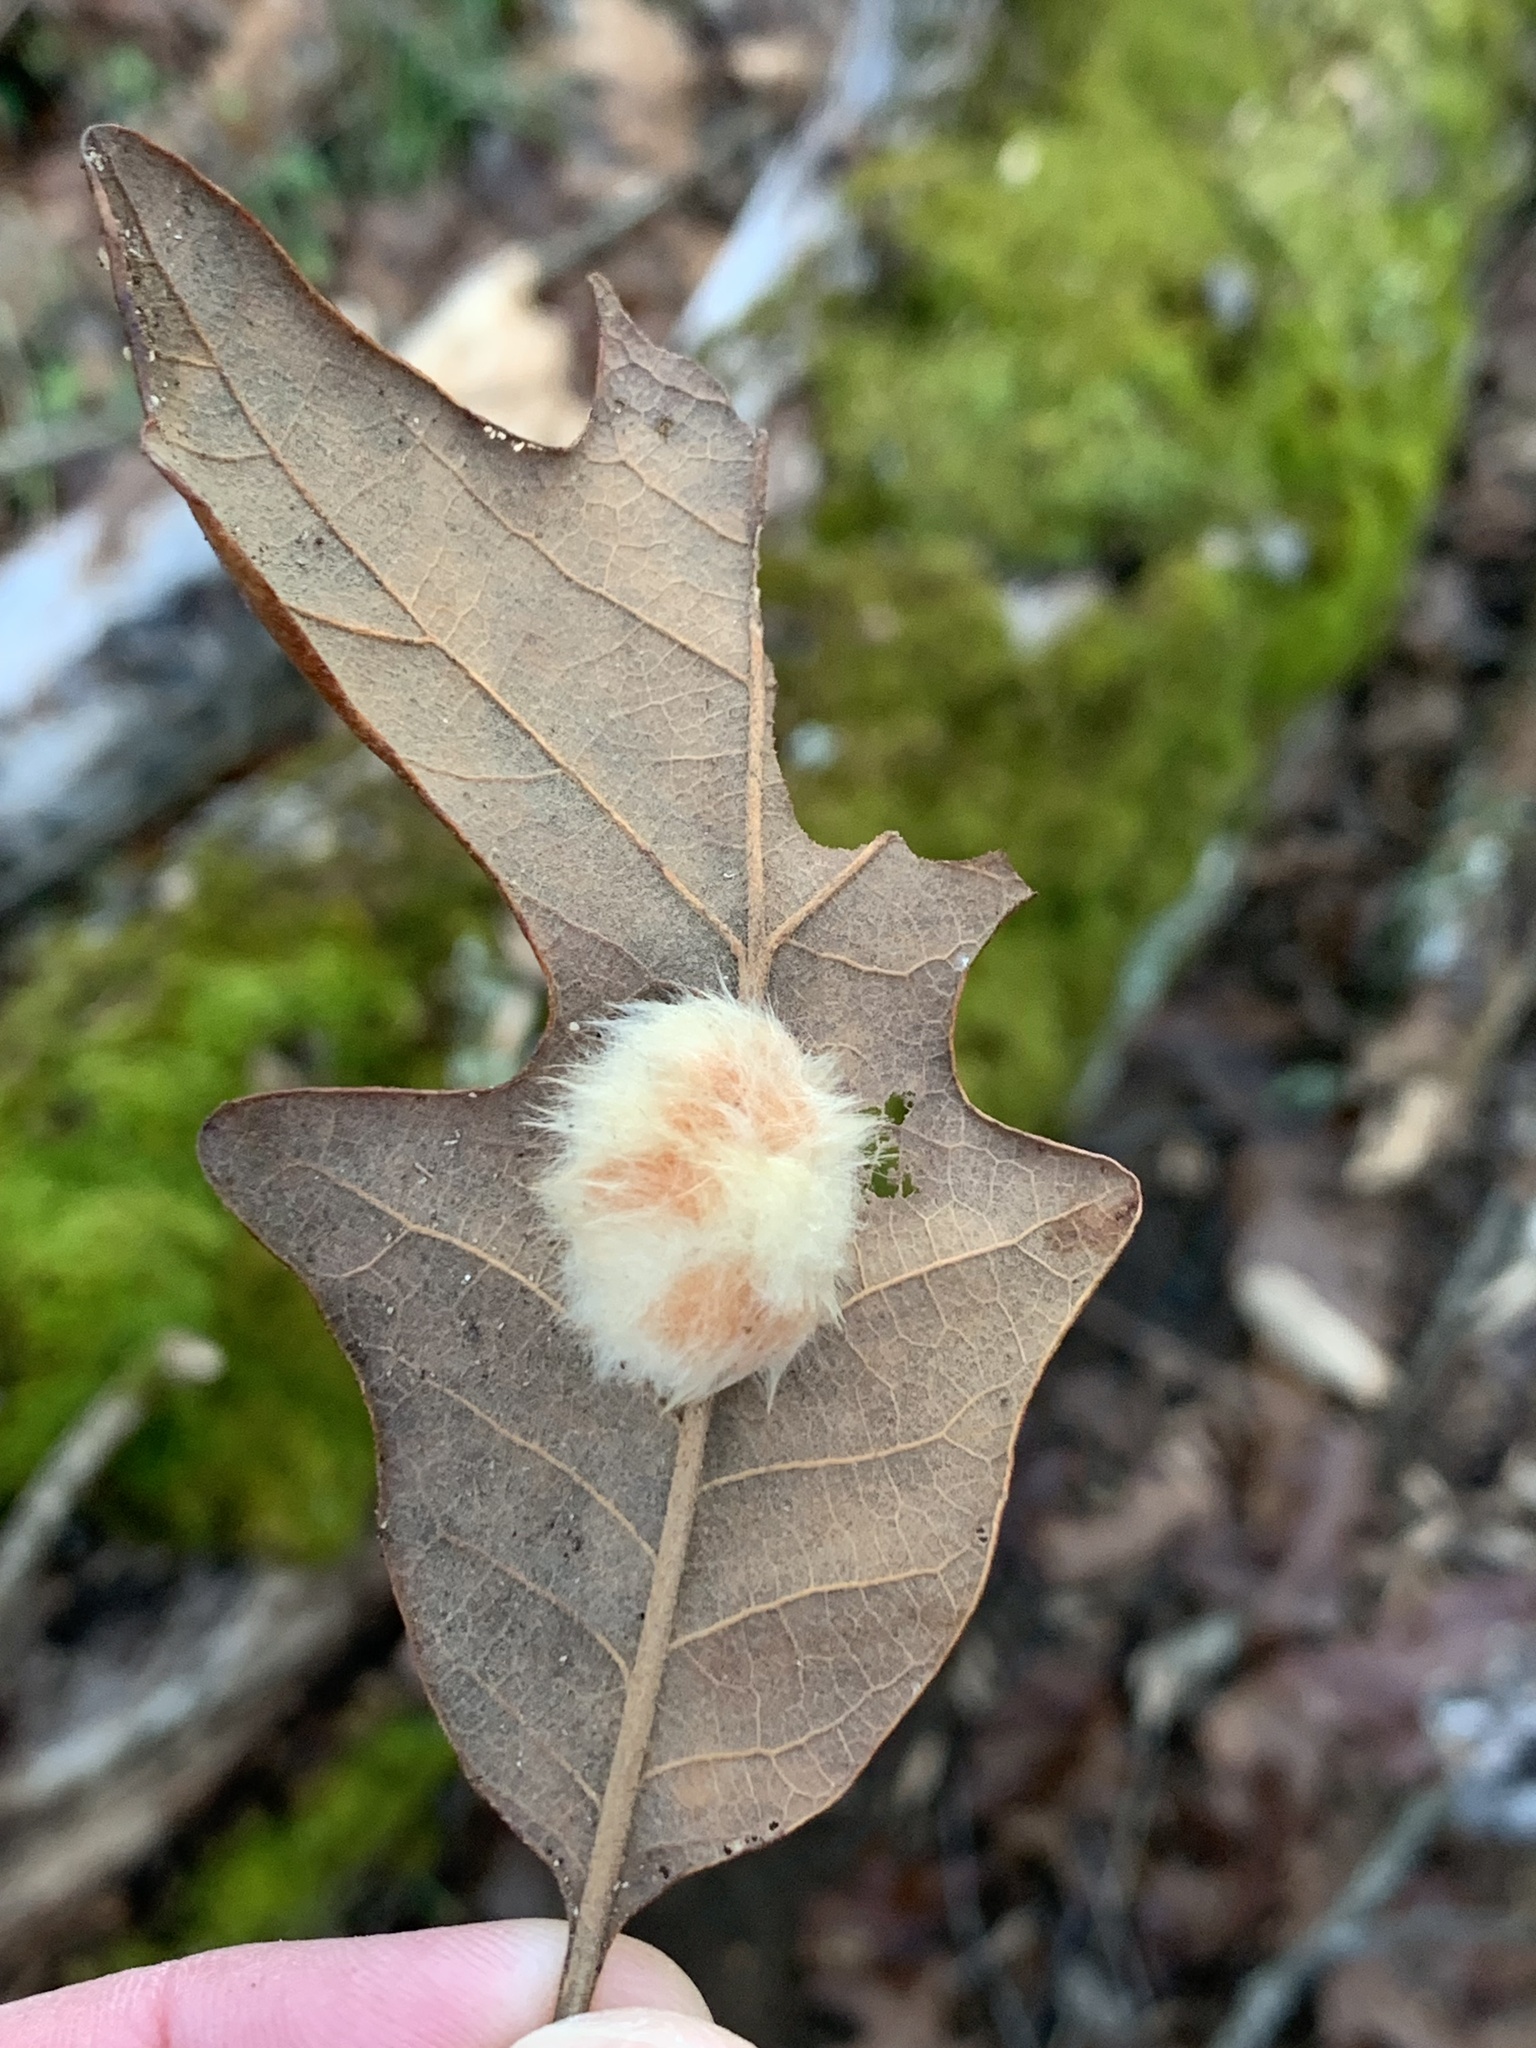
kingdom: Animalia
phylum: Arthropoda
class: Insecta
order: Hymenoptera
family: Cynipidae
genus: Andricus
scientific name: Andricus Druon pattoni
